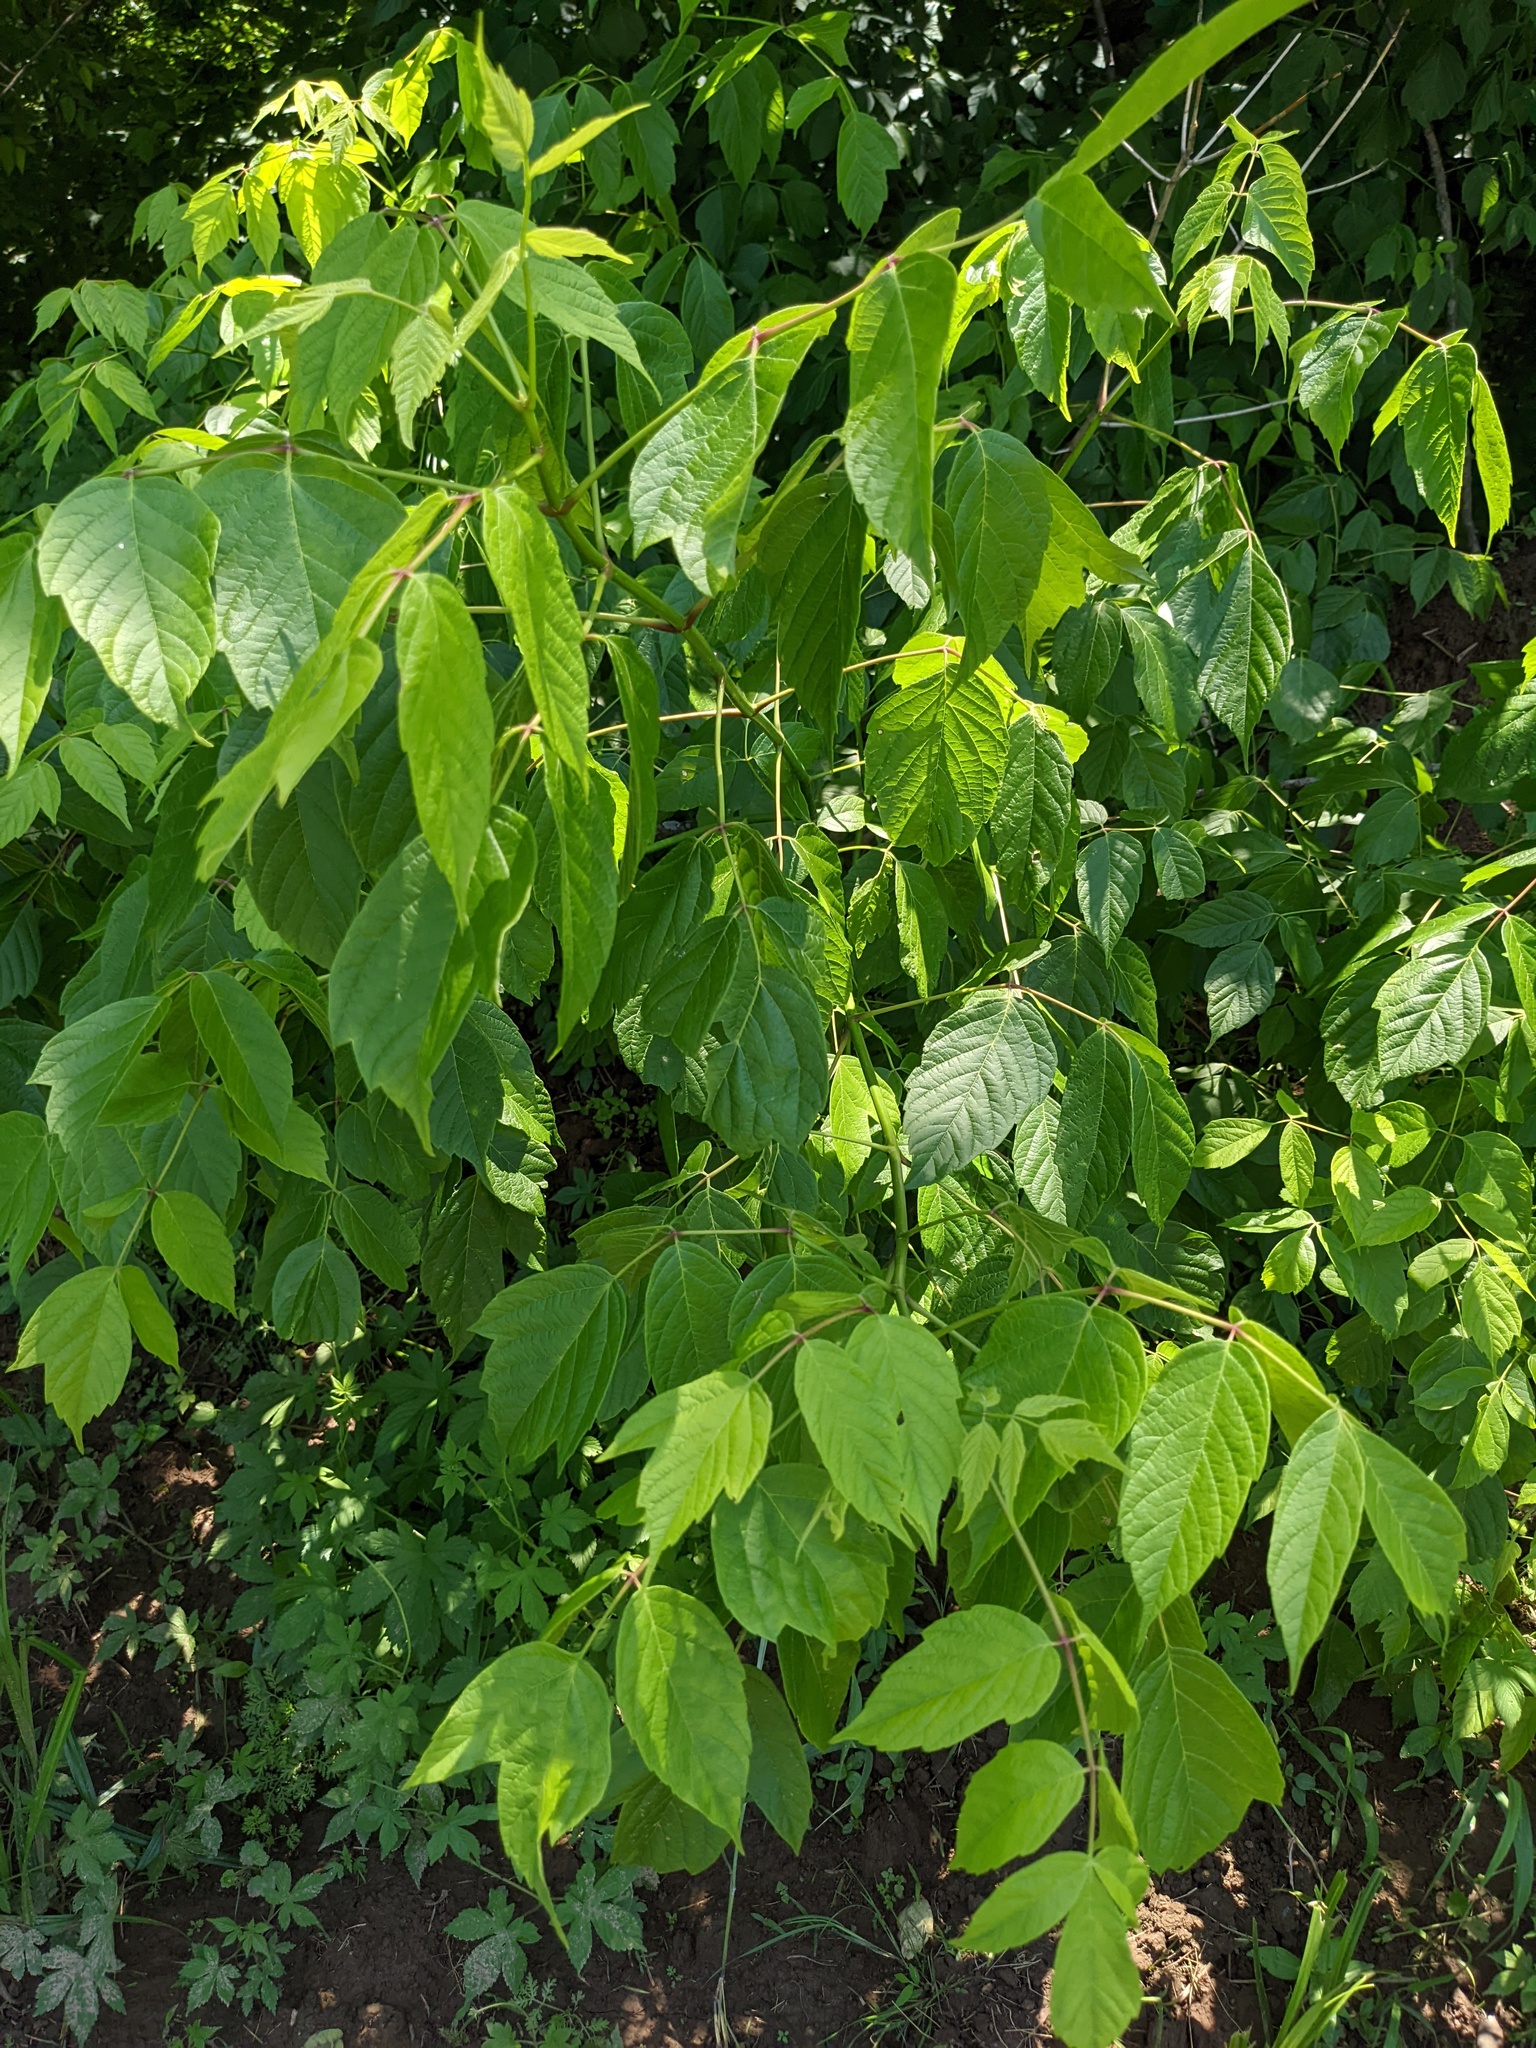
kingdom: Plantae
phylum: Tracheophyta
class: Magnoliopsida
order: Sapindales
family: Sapindaceae
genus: Acer
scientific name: Acer negundo
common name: Ashleaf maple
